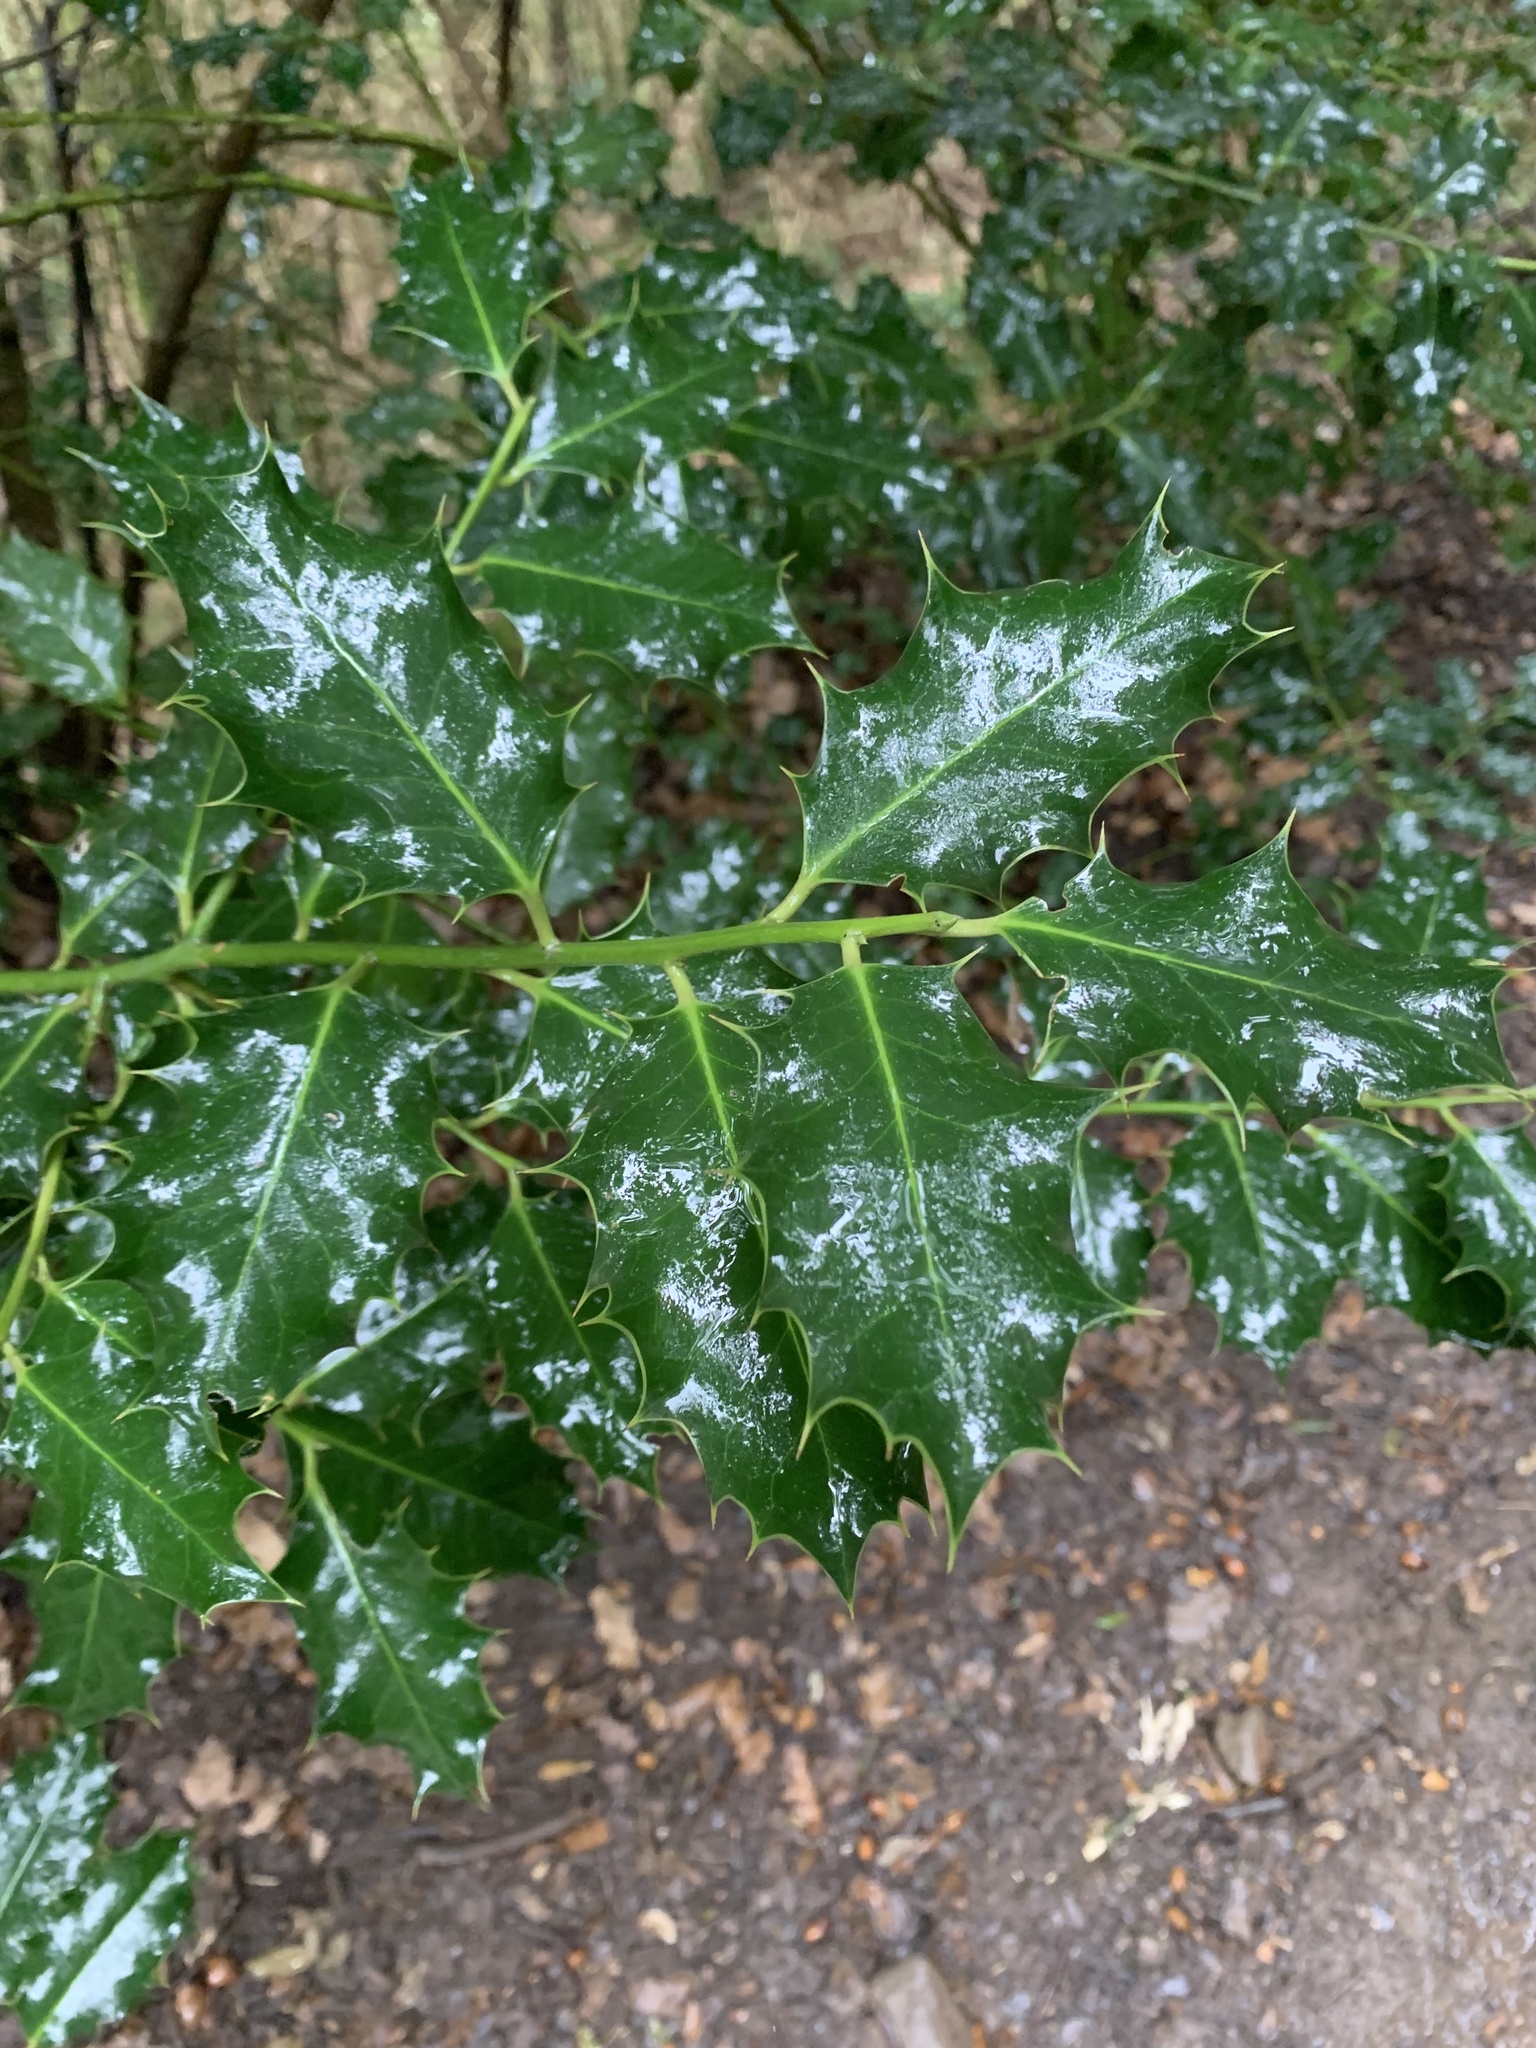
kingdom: Plantae
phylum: Tracheophyta
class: Magnoliopsida
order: Aquifoliales
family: Aquifoliaceae
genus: Ilex
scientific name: Ilex aquifolium
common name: English holly
